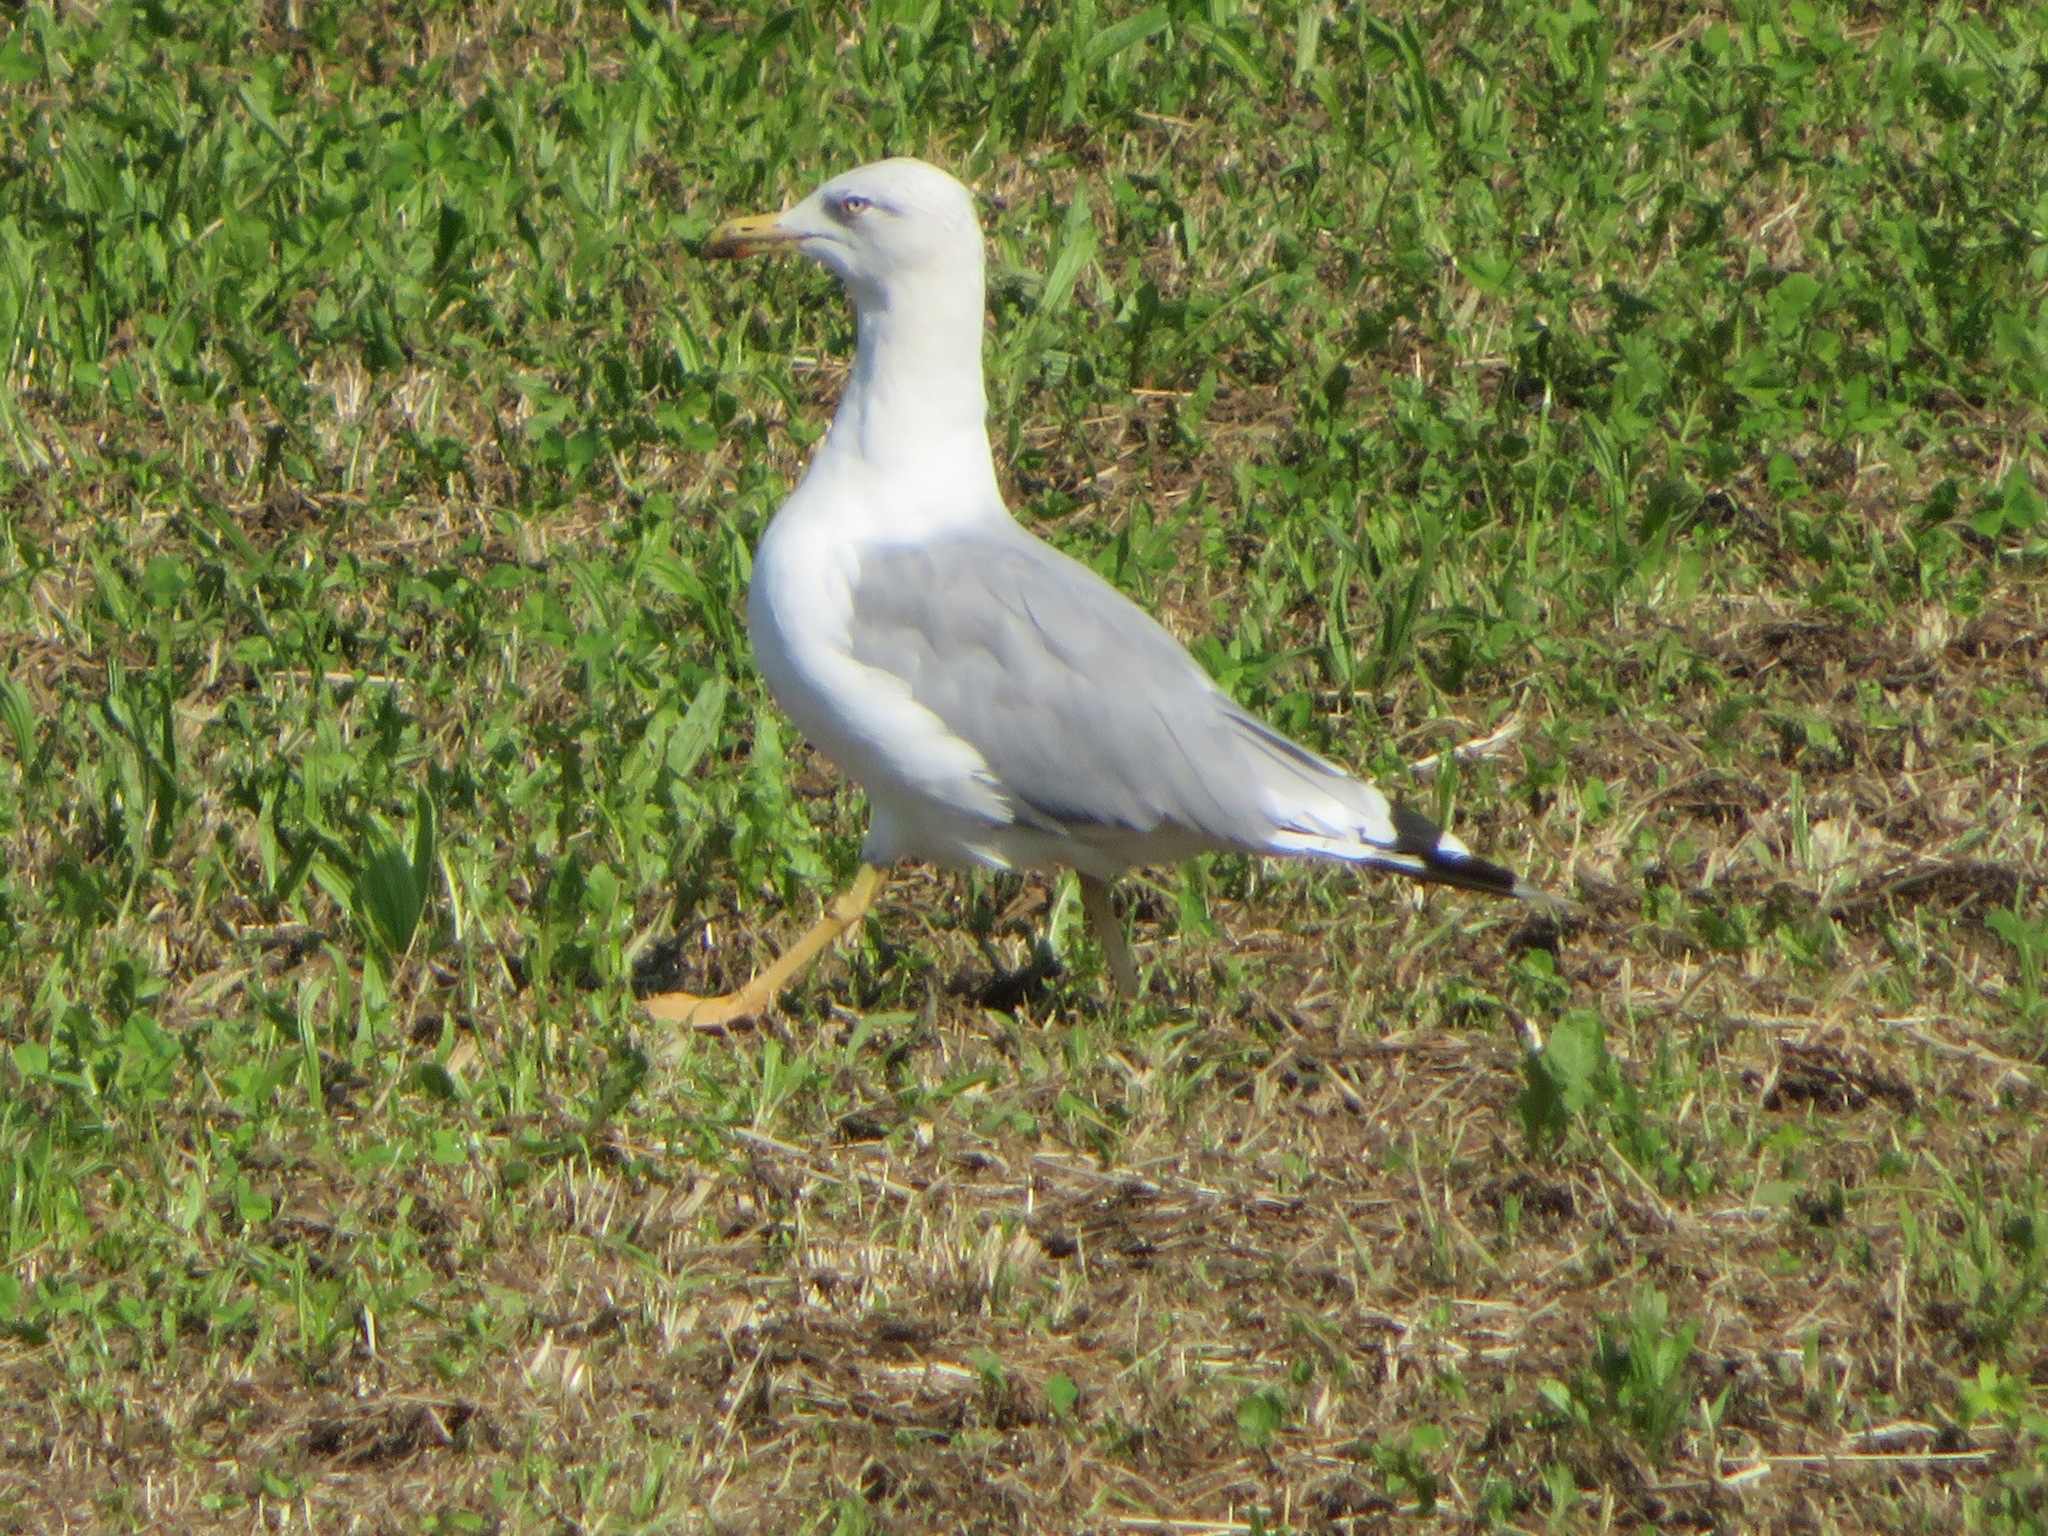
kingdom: Animalia
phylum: Chordata
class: Aves
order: Charadriiformes
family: Laridae
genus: Larus
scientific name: Larus michahellis
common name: Yellow-legged gull
